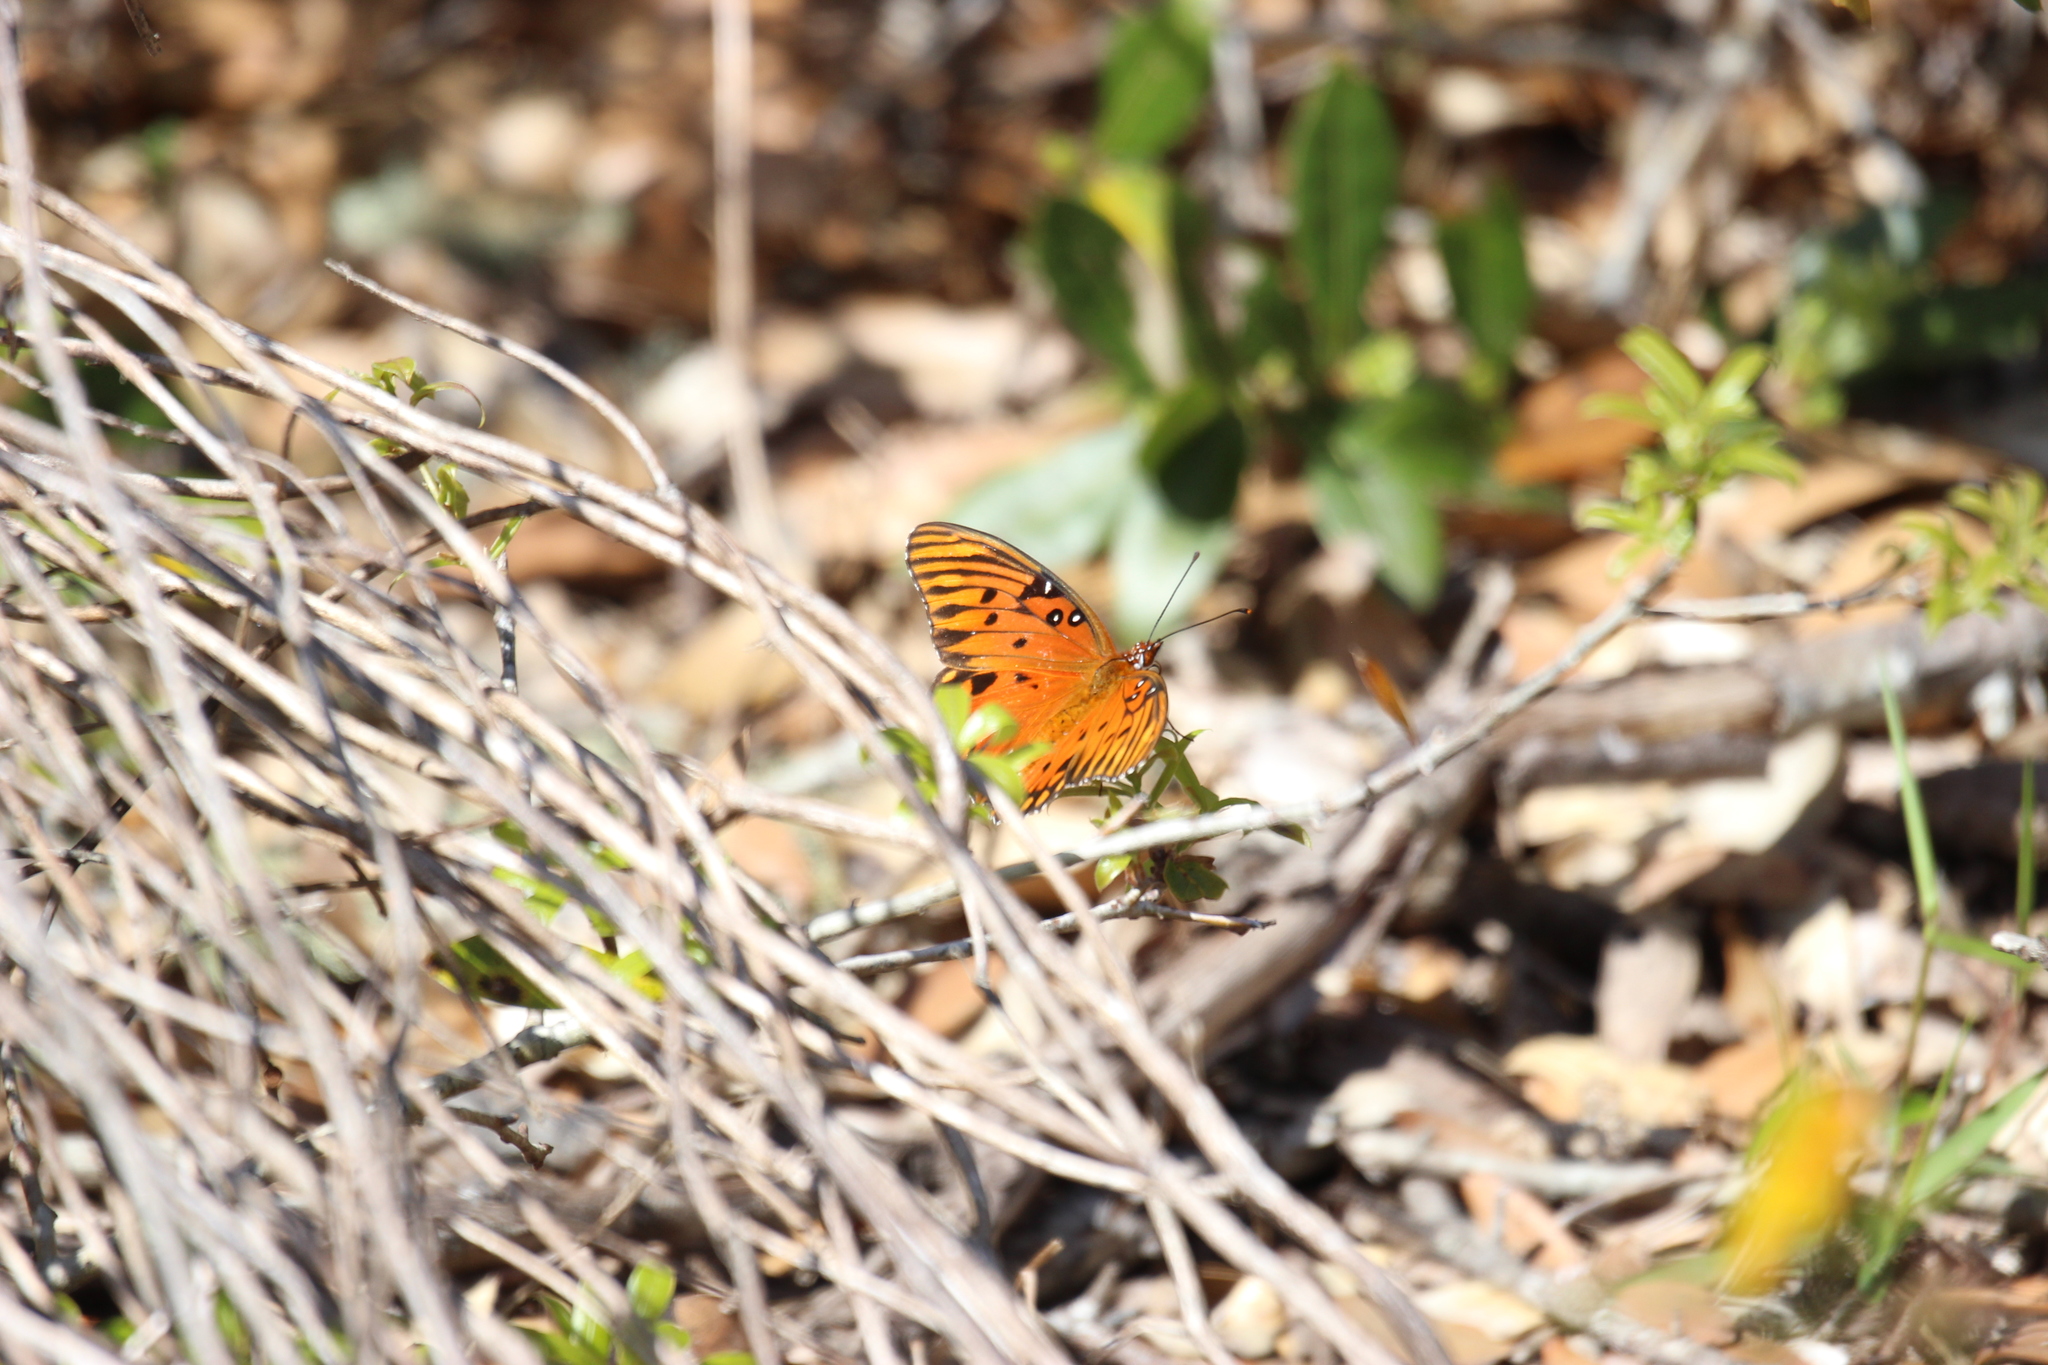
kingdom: Animalia
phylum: Arthropoda
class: Insecta
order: Lepidoptera
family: Nymphalidae
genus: Dione
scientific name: Dione vanillae
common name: Gulf fritillary
